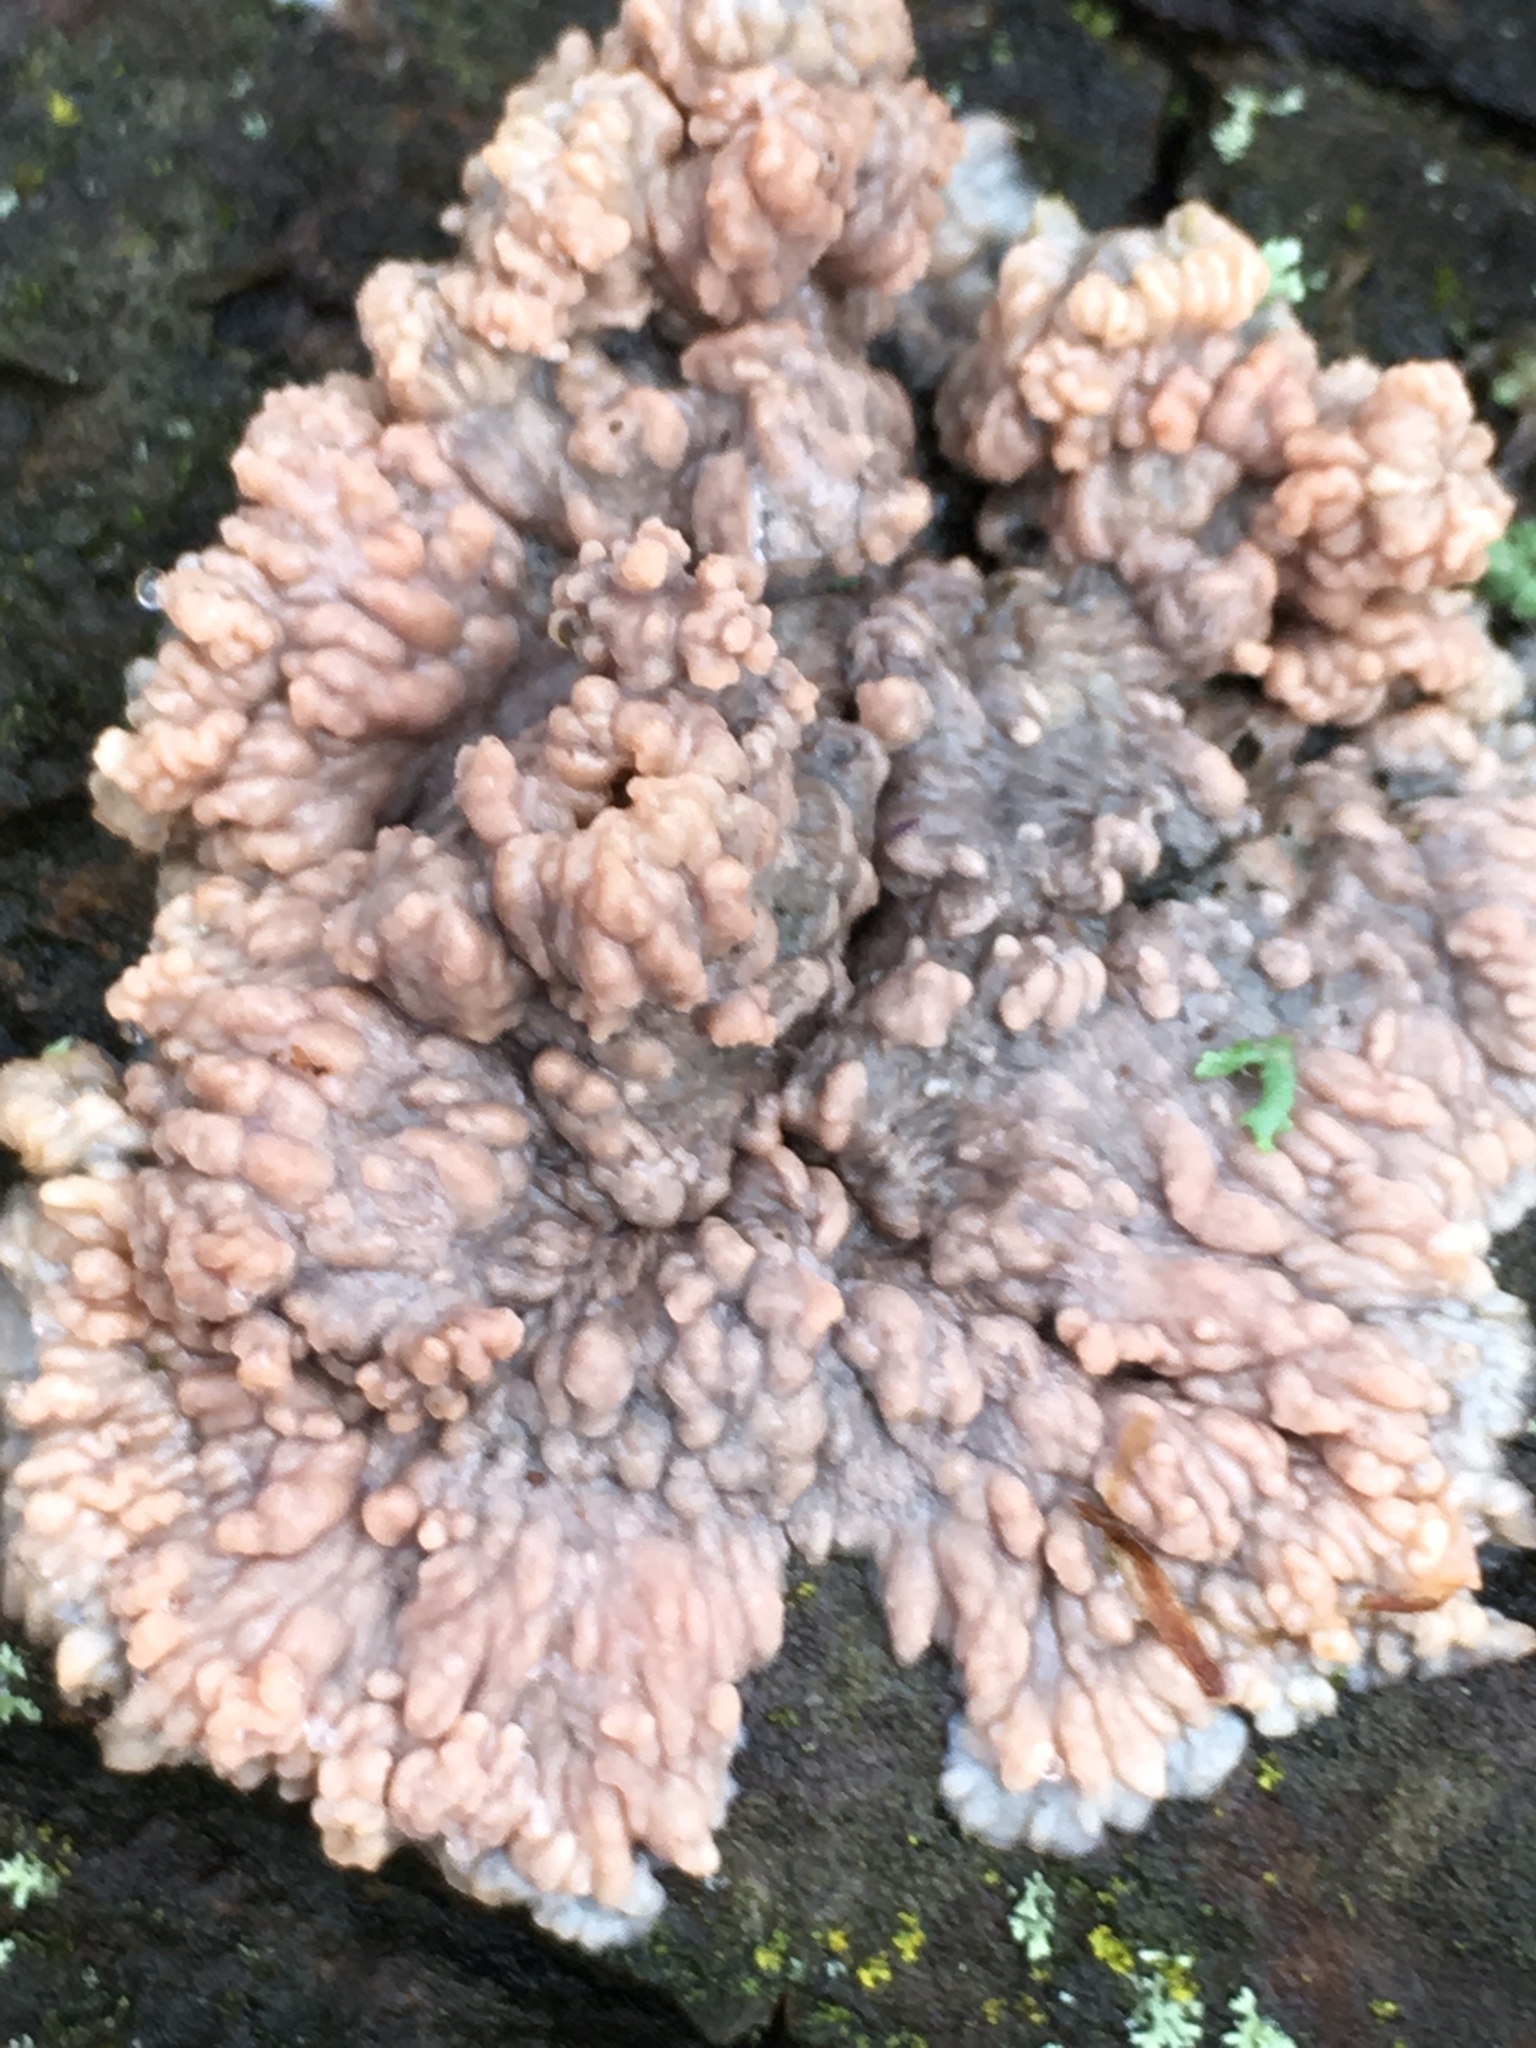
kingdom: Fungi
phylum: Basidiomycota
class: Agaricomycetes
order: Polyporales
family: Meruliaceae
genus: Phlebia
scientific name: Phlebia radiata
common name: Wrinkled crust
